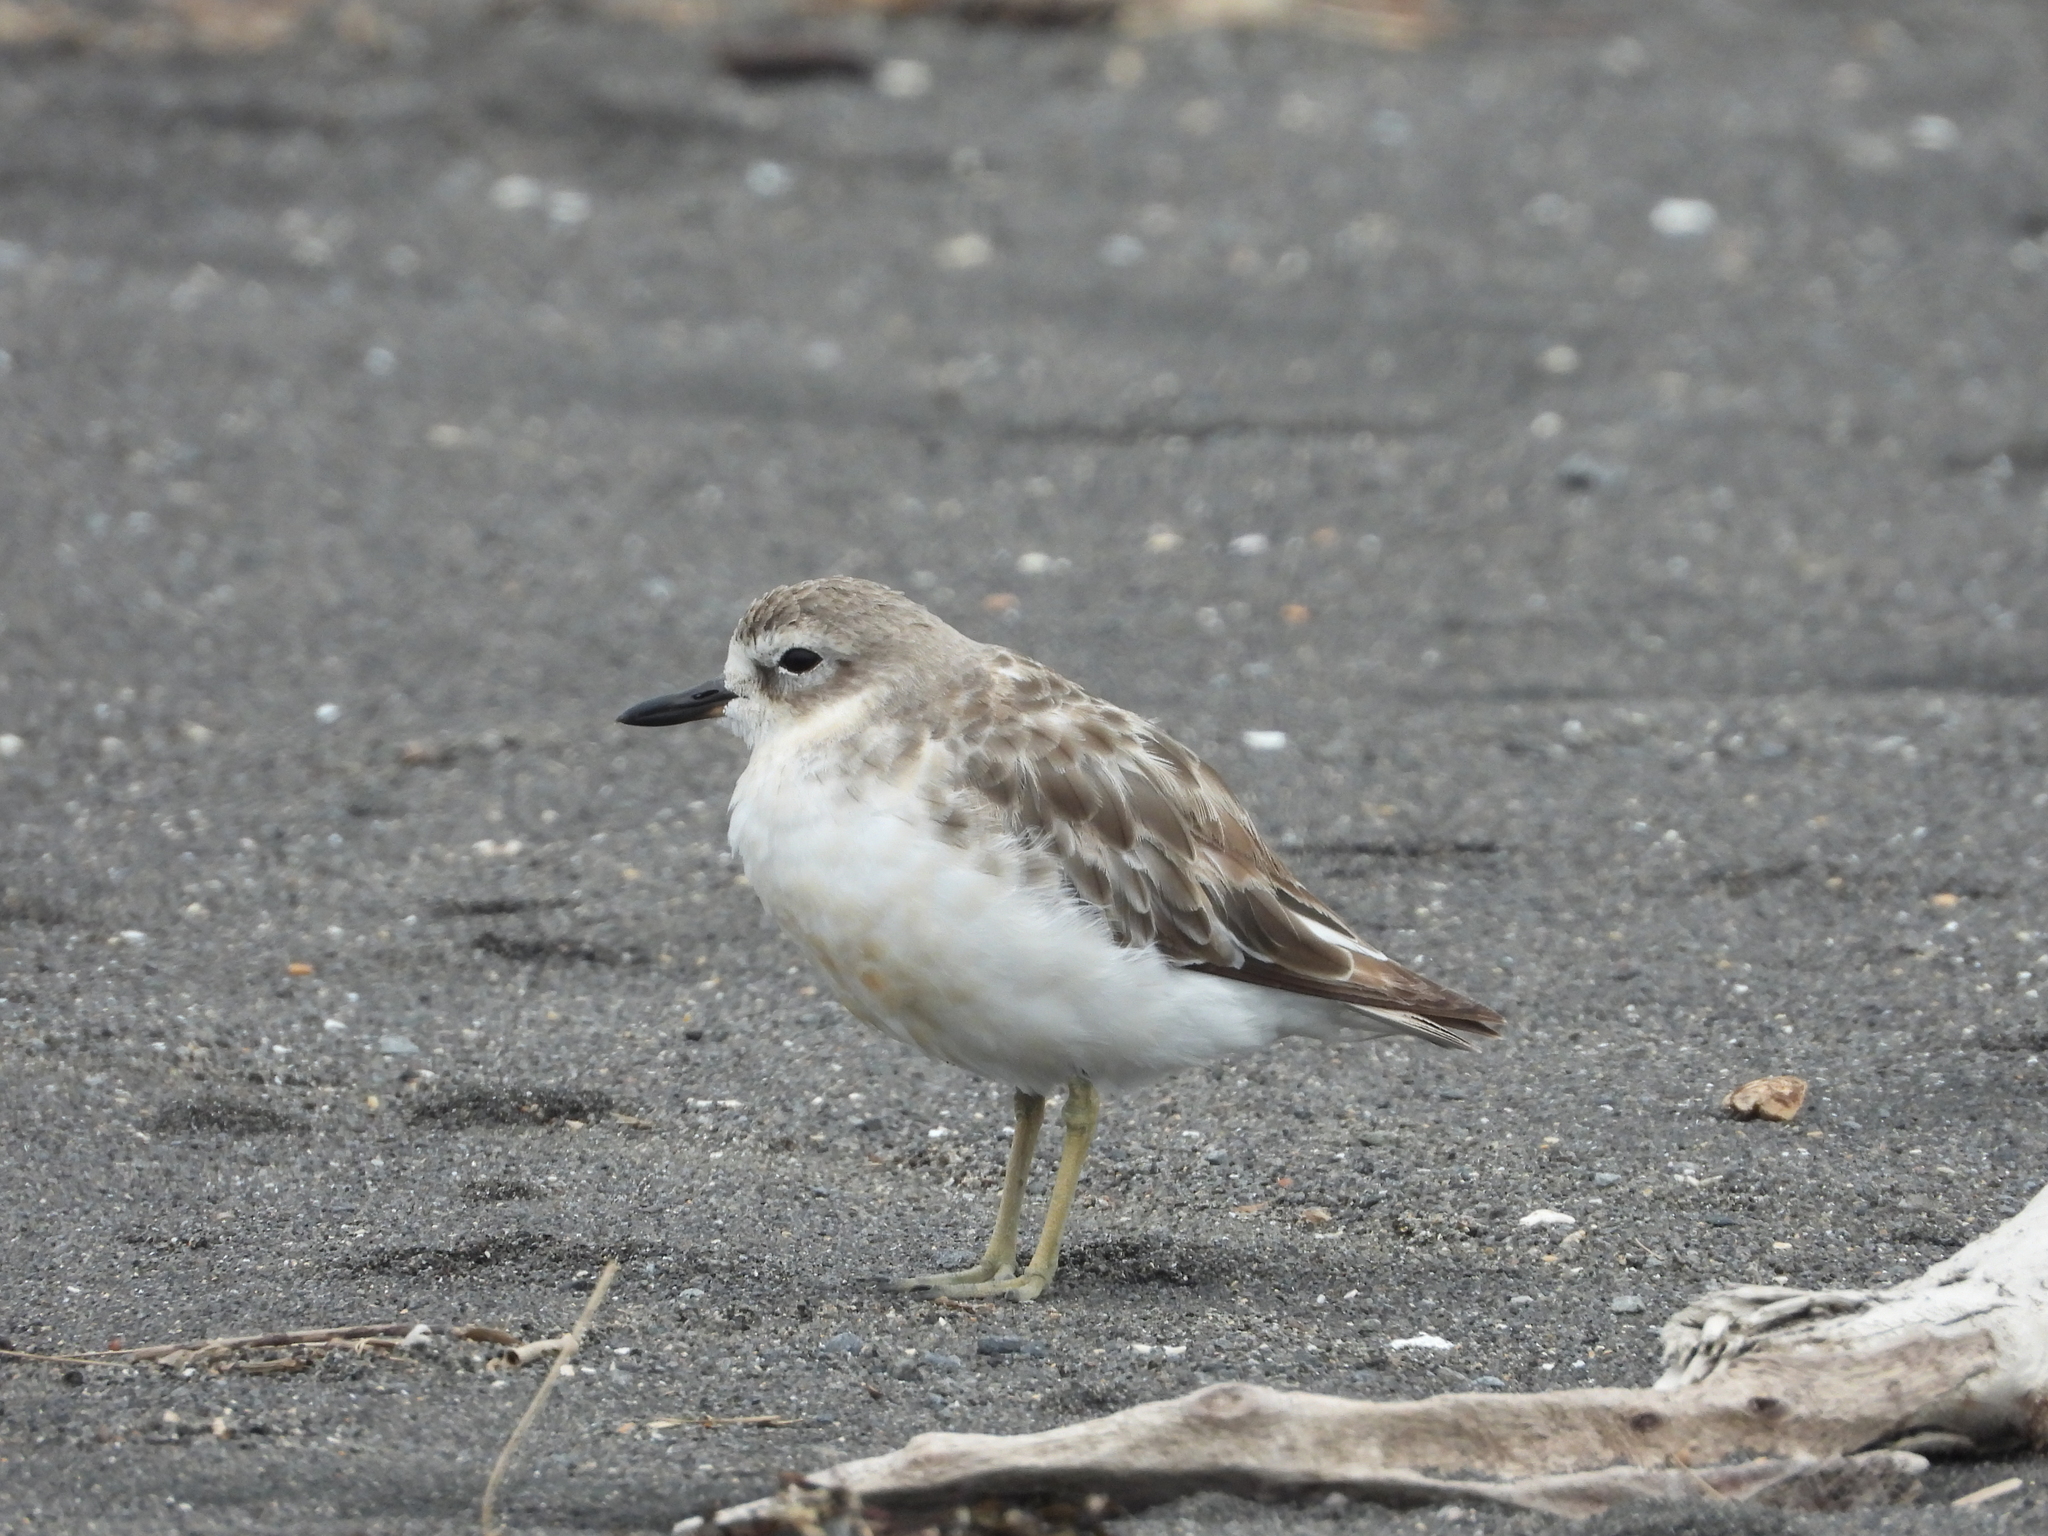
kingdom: Animalia
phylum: Chordata
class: Aves
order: Charadriiformes
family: Charadriidae
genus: Anarhynchus
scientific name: Anarhynchus
